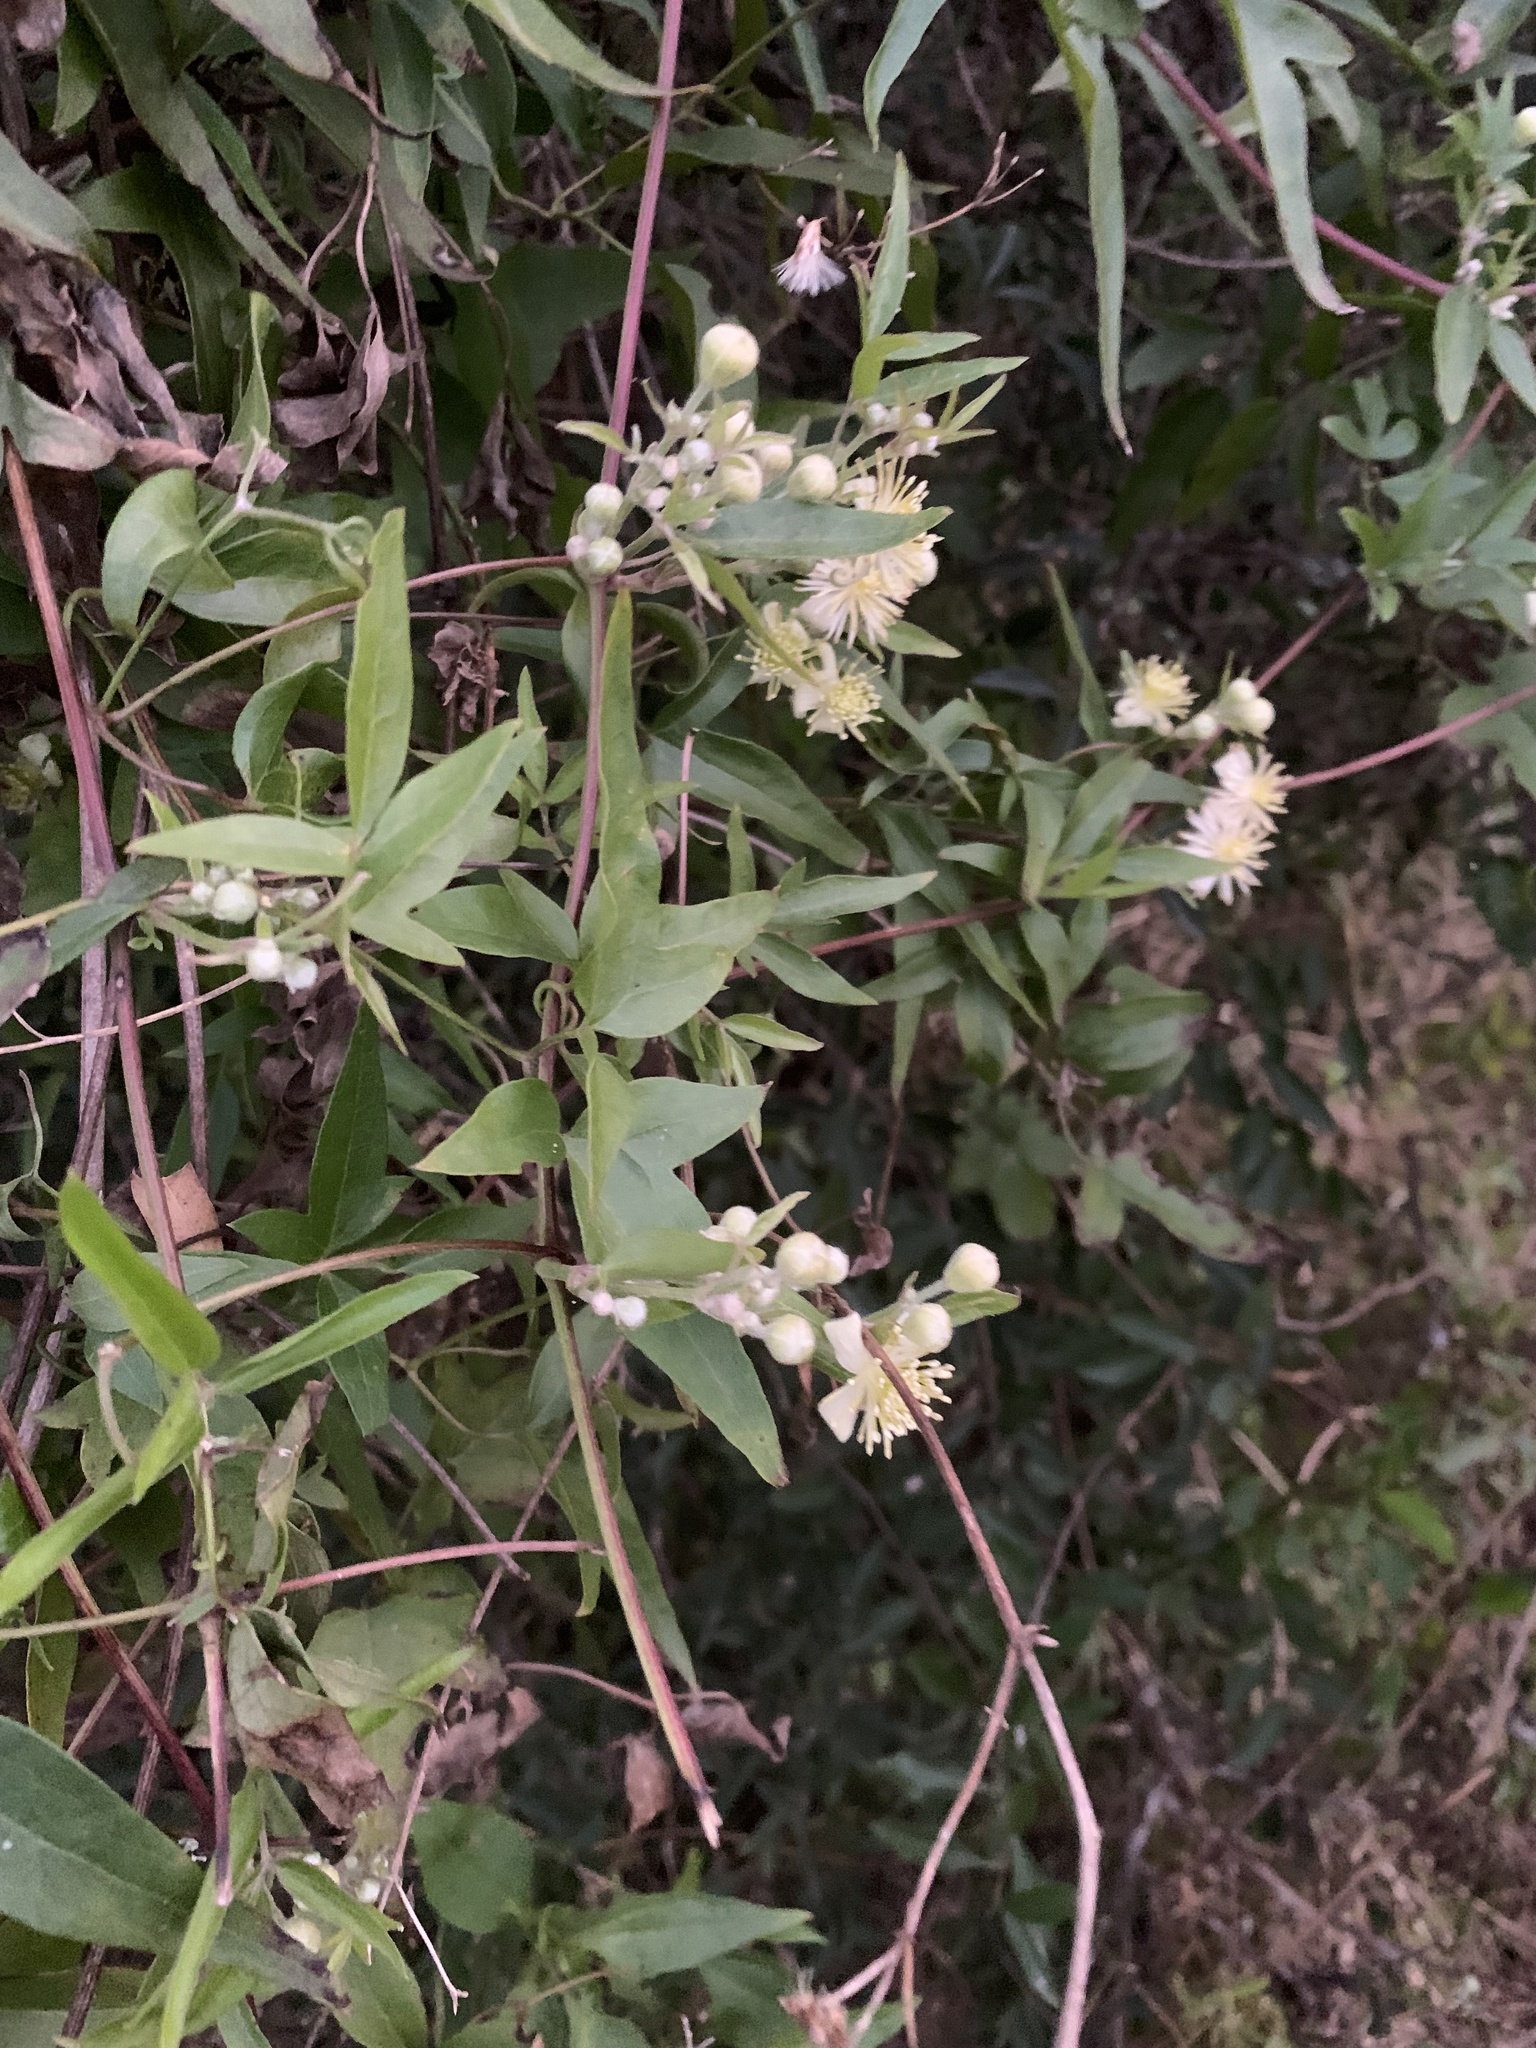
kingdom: Plantae
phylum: Tracheophyta
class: Magnoliopsida
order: Ranunculales
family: Ranunculaceae
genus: Clematis
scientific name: Clematis montevidensis
